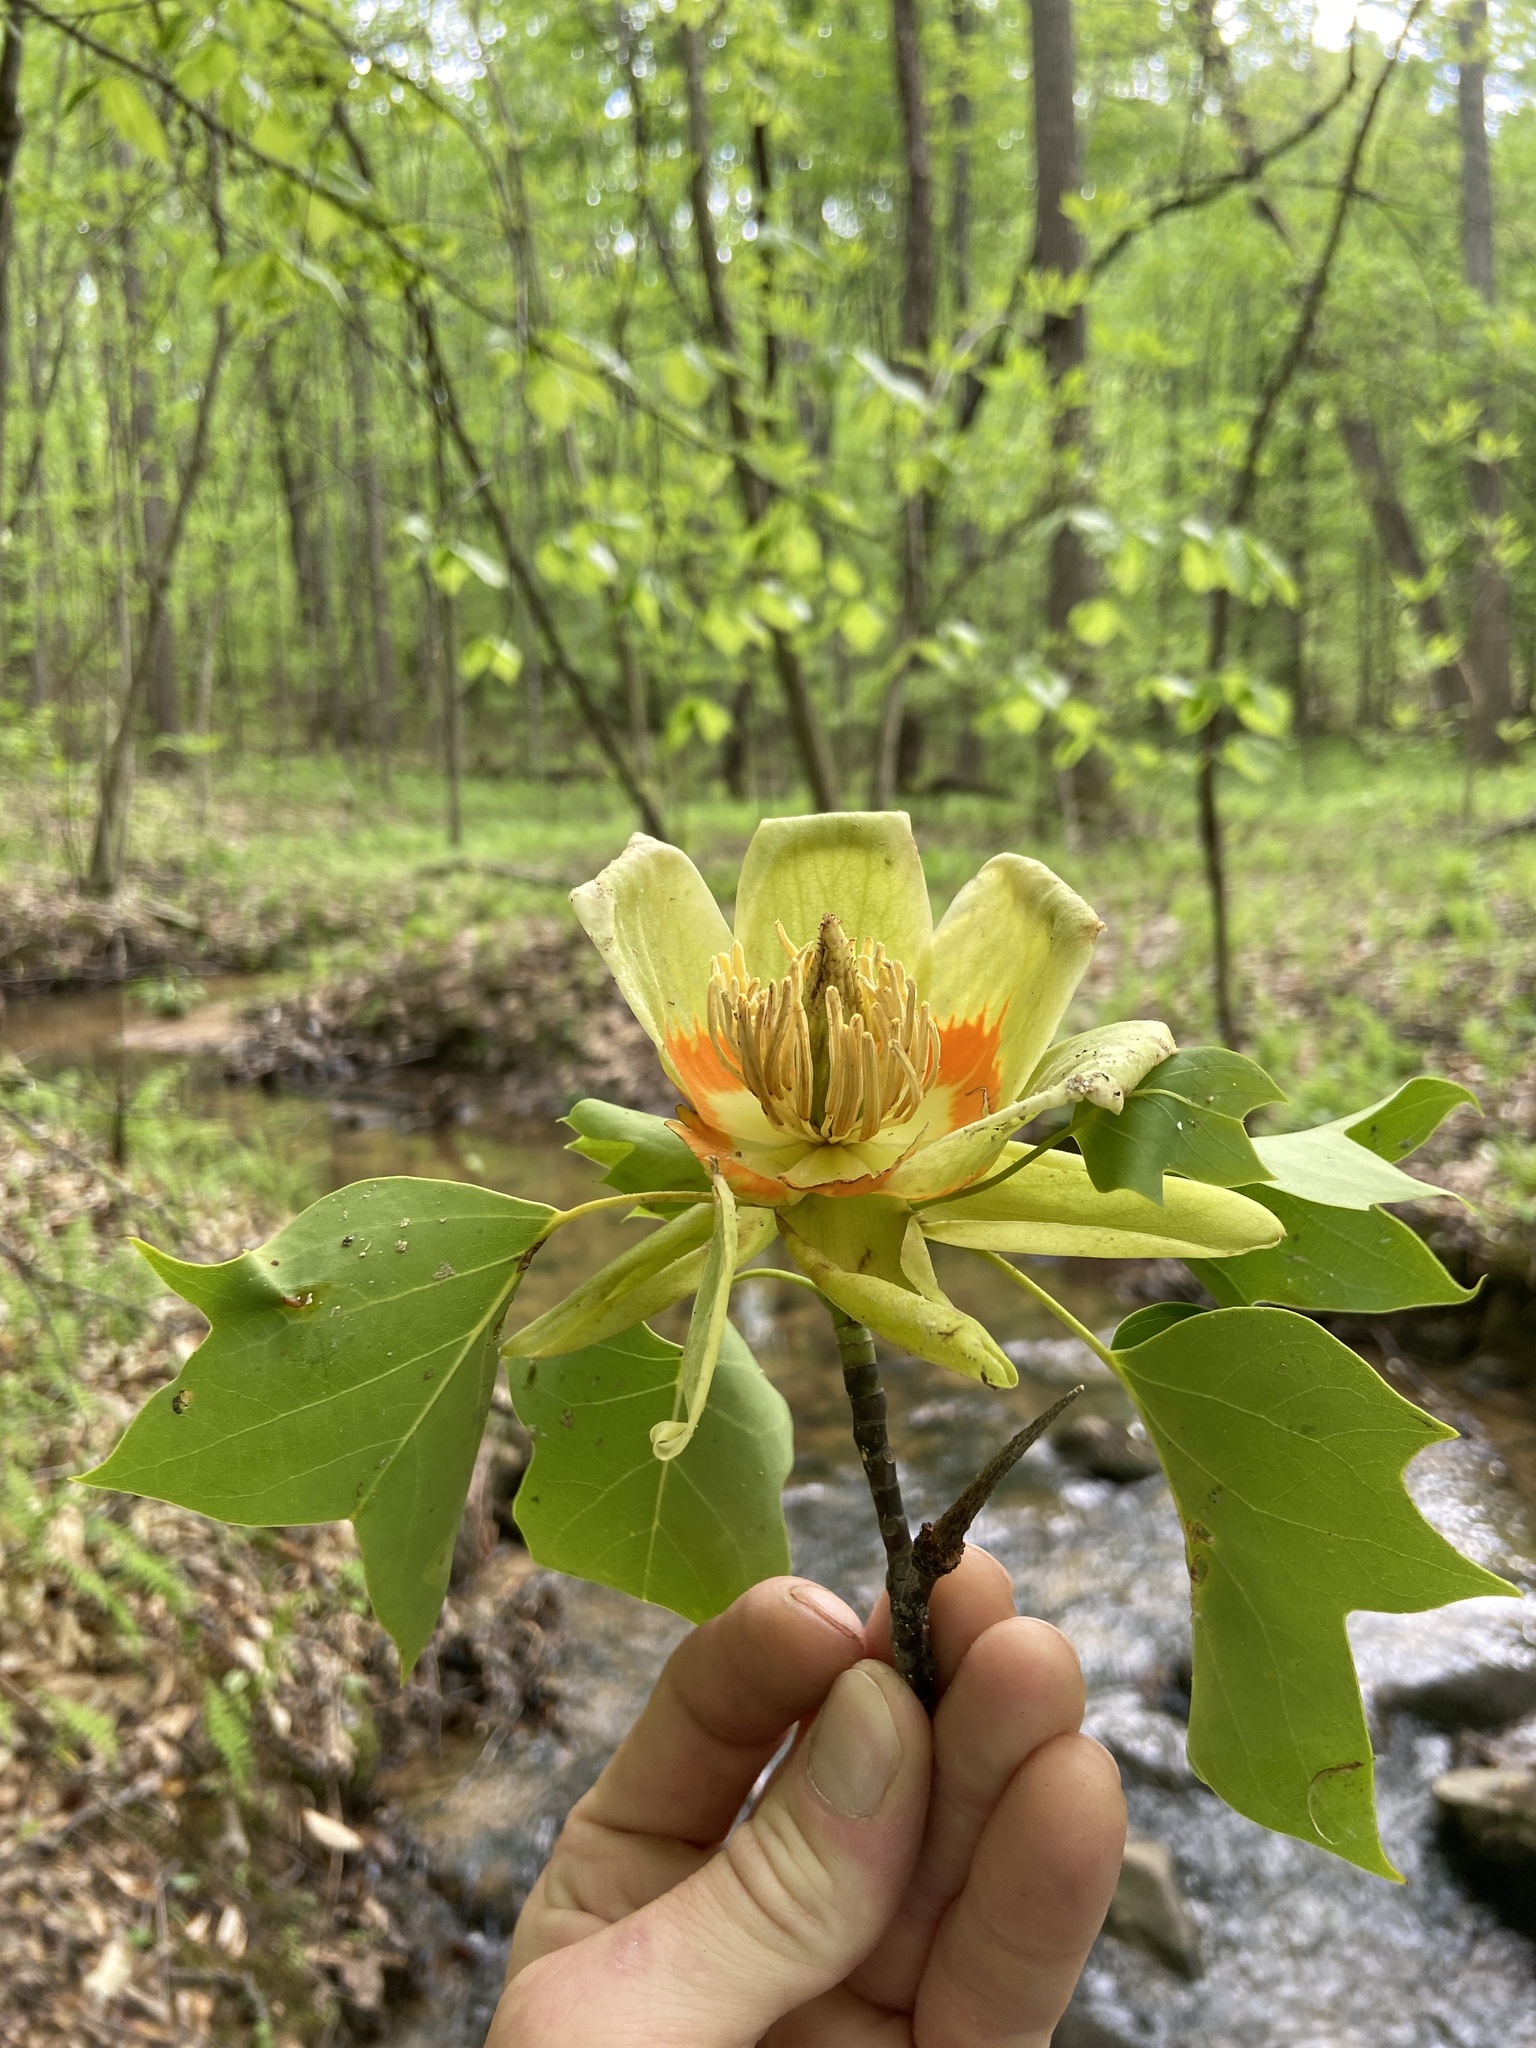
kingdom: Plantae
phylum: Tracheophyta
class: Magnoliopsida
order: Magnoliales
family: Magnoliaceae
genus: Liriodendron
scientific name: Liriodendron tulipifera
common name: Tulip tree
